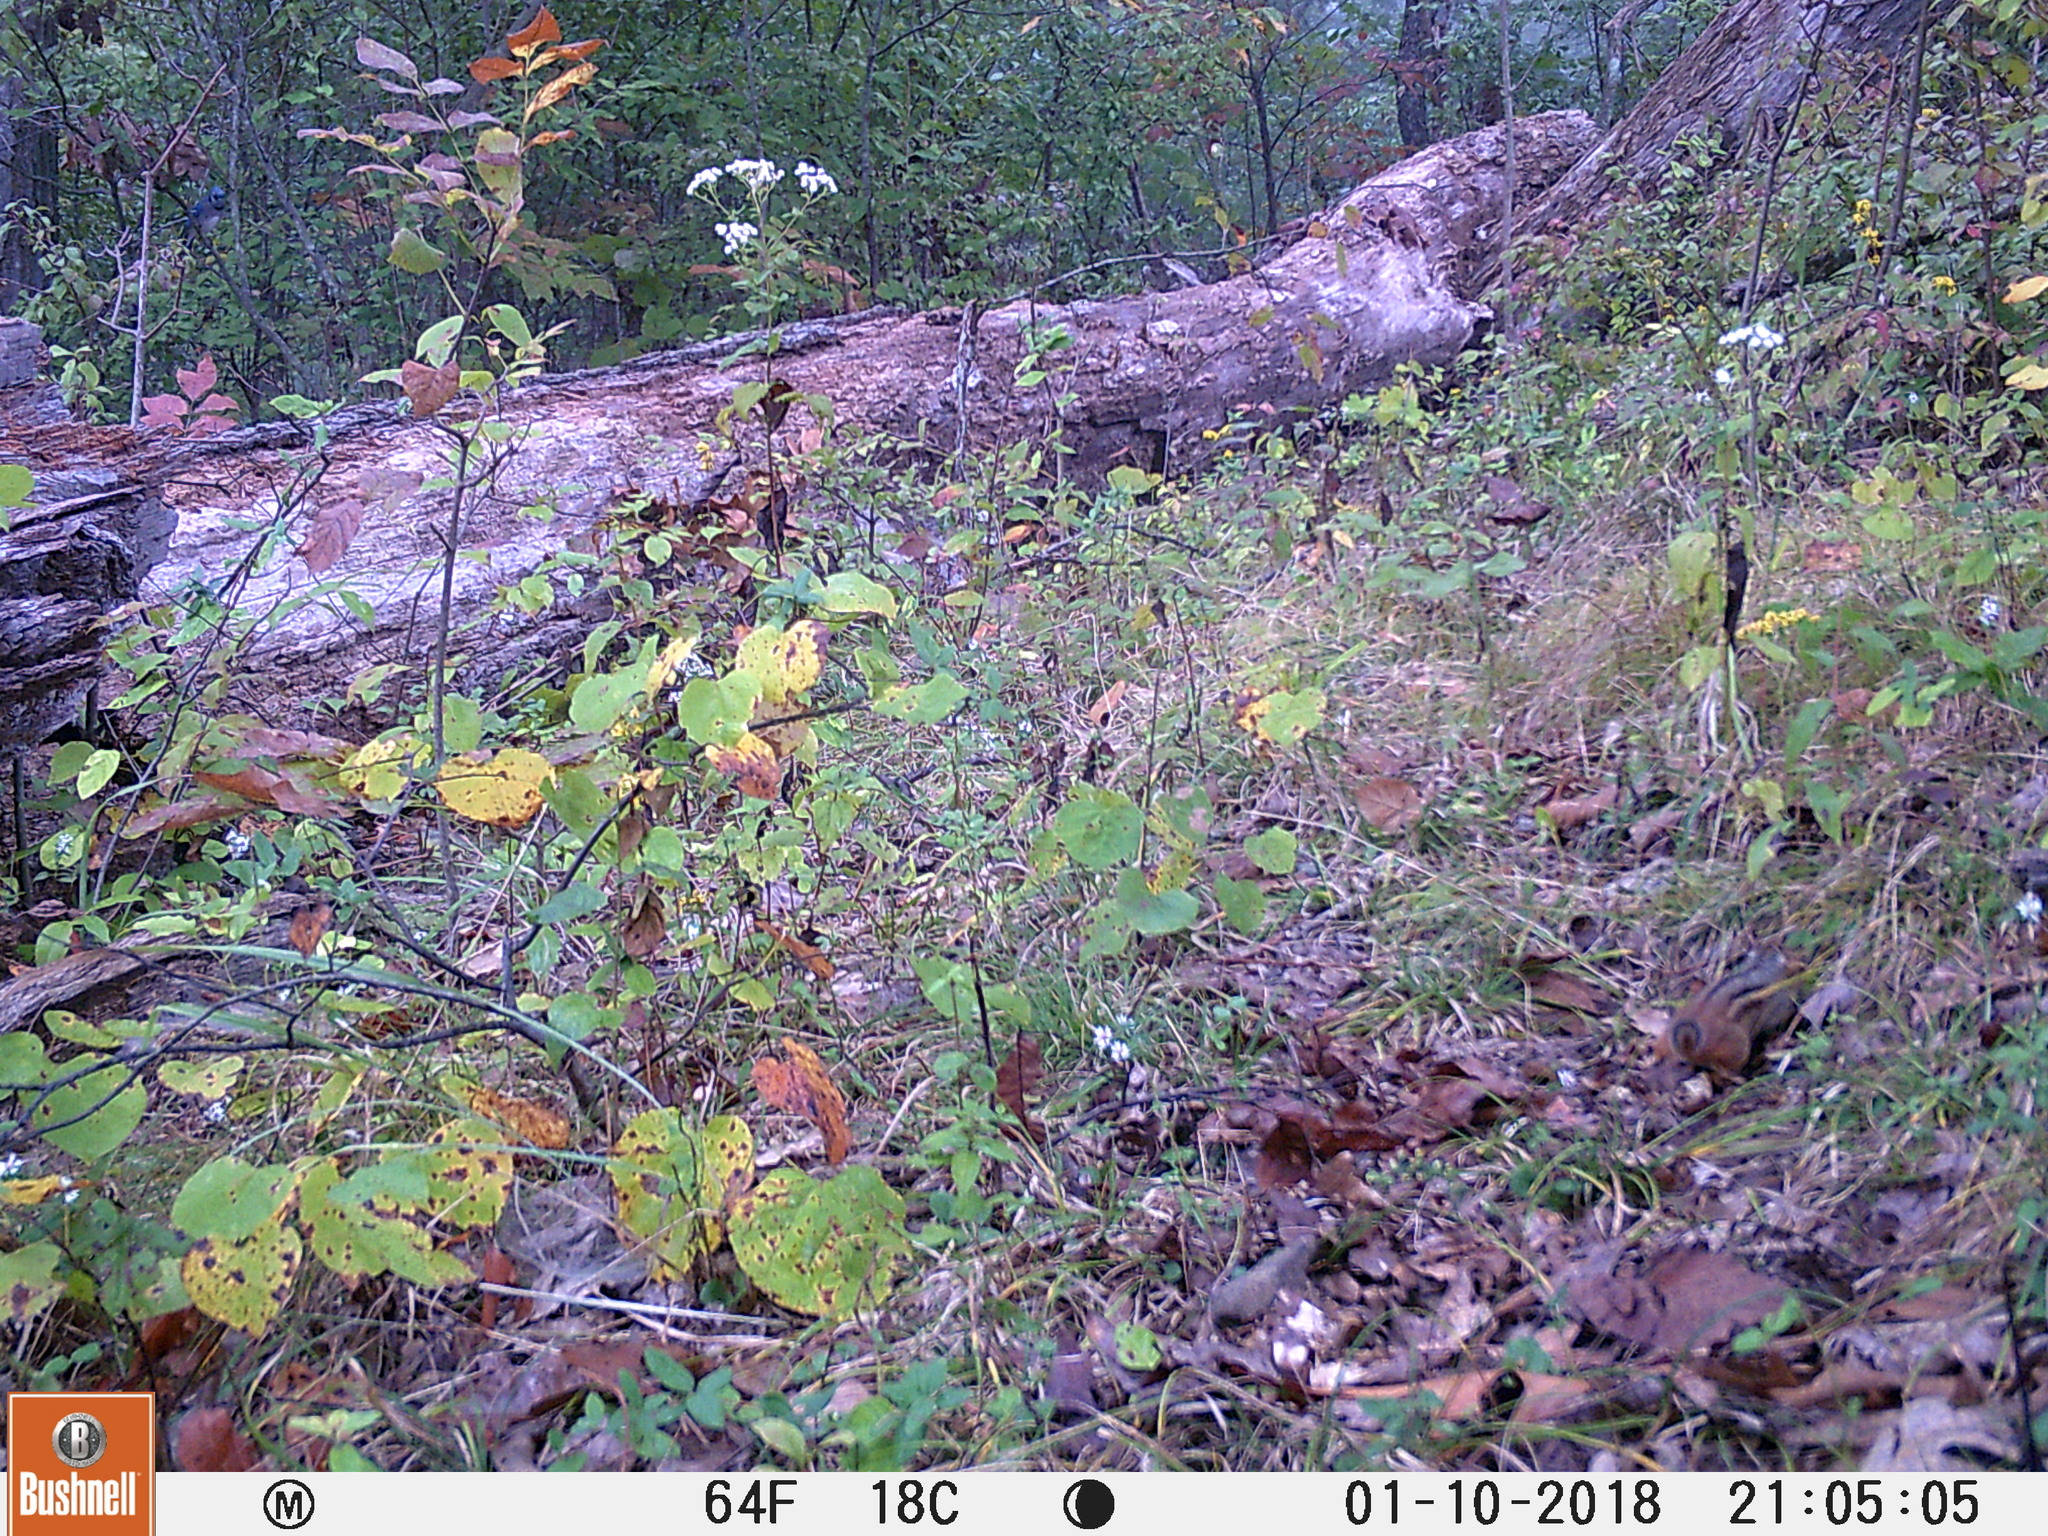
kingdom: Animalia
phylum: Chordata
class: Mammalia
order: Rodentia
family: Sciuridae
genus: Tamias
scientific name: Tamias striatus
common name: Eastern chipmunk
